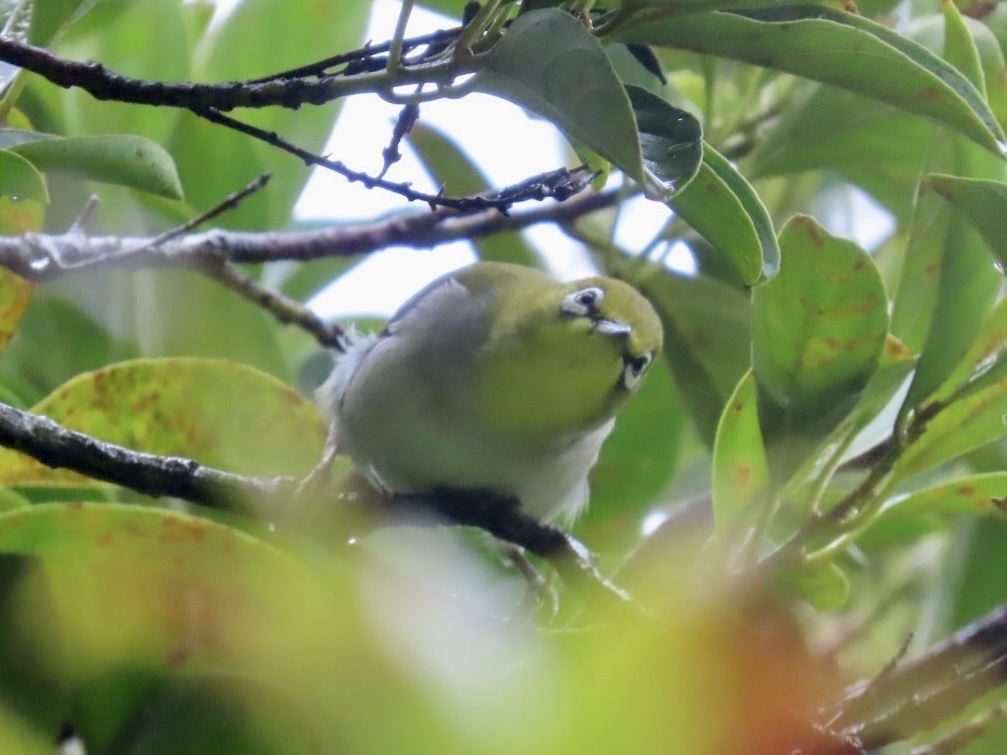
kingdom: Animalia
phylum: Chordata
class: Aves
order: Passeriformes
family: Zosteropidae
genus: Zosterops
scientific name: Zosterops simplex
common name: Swinhoe's white-eye
